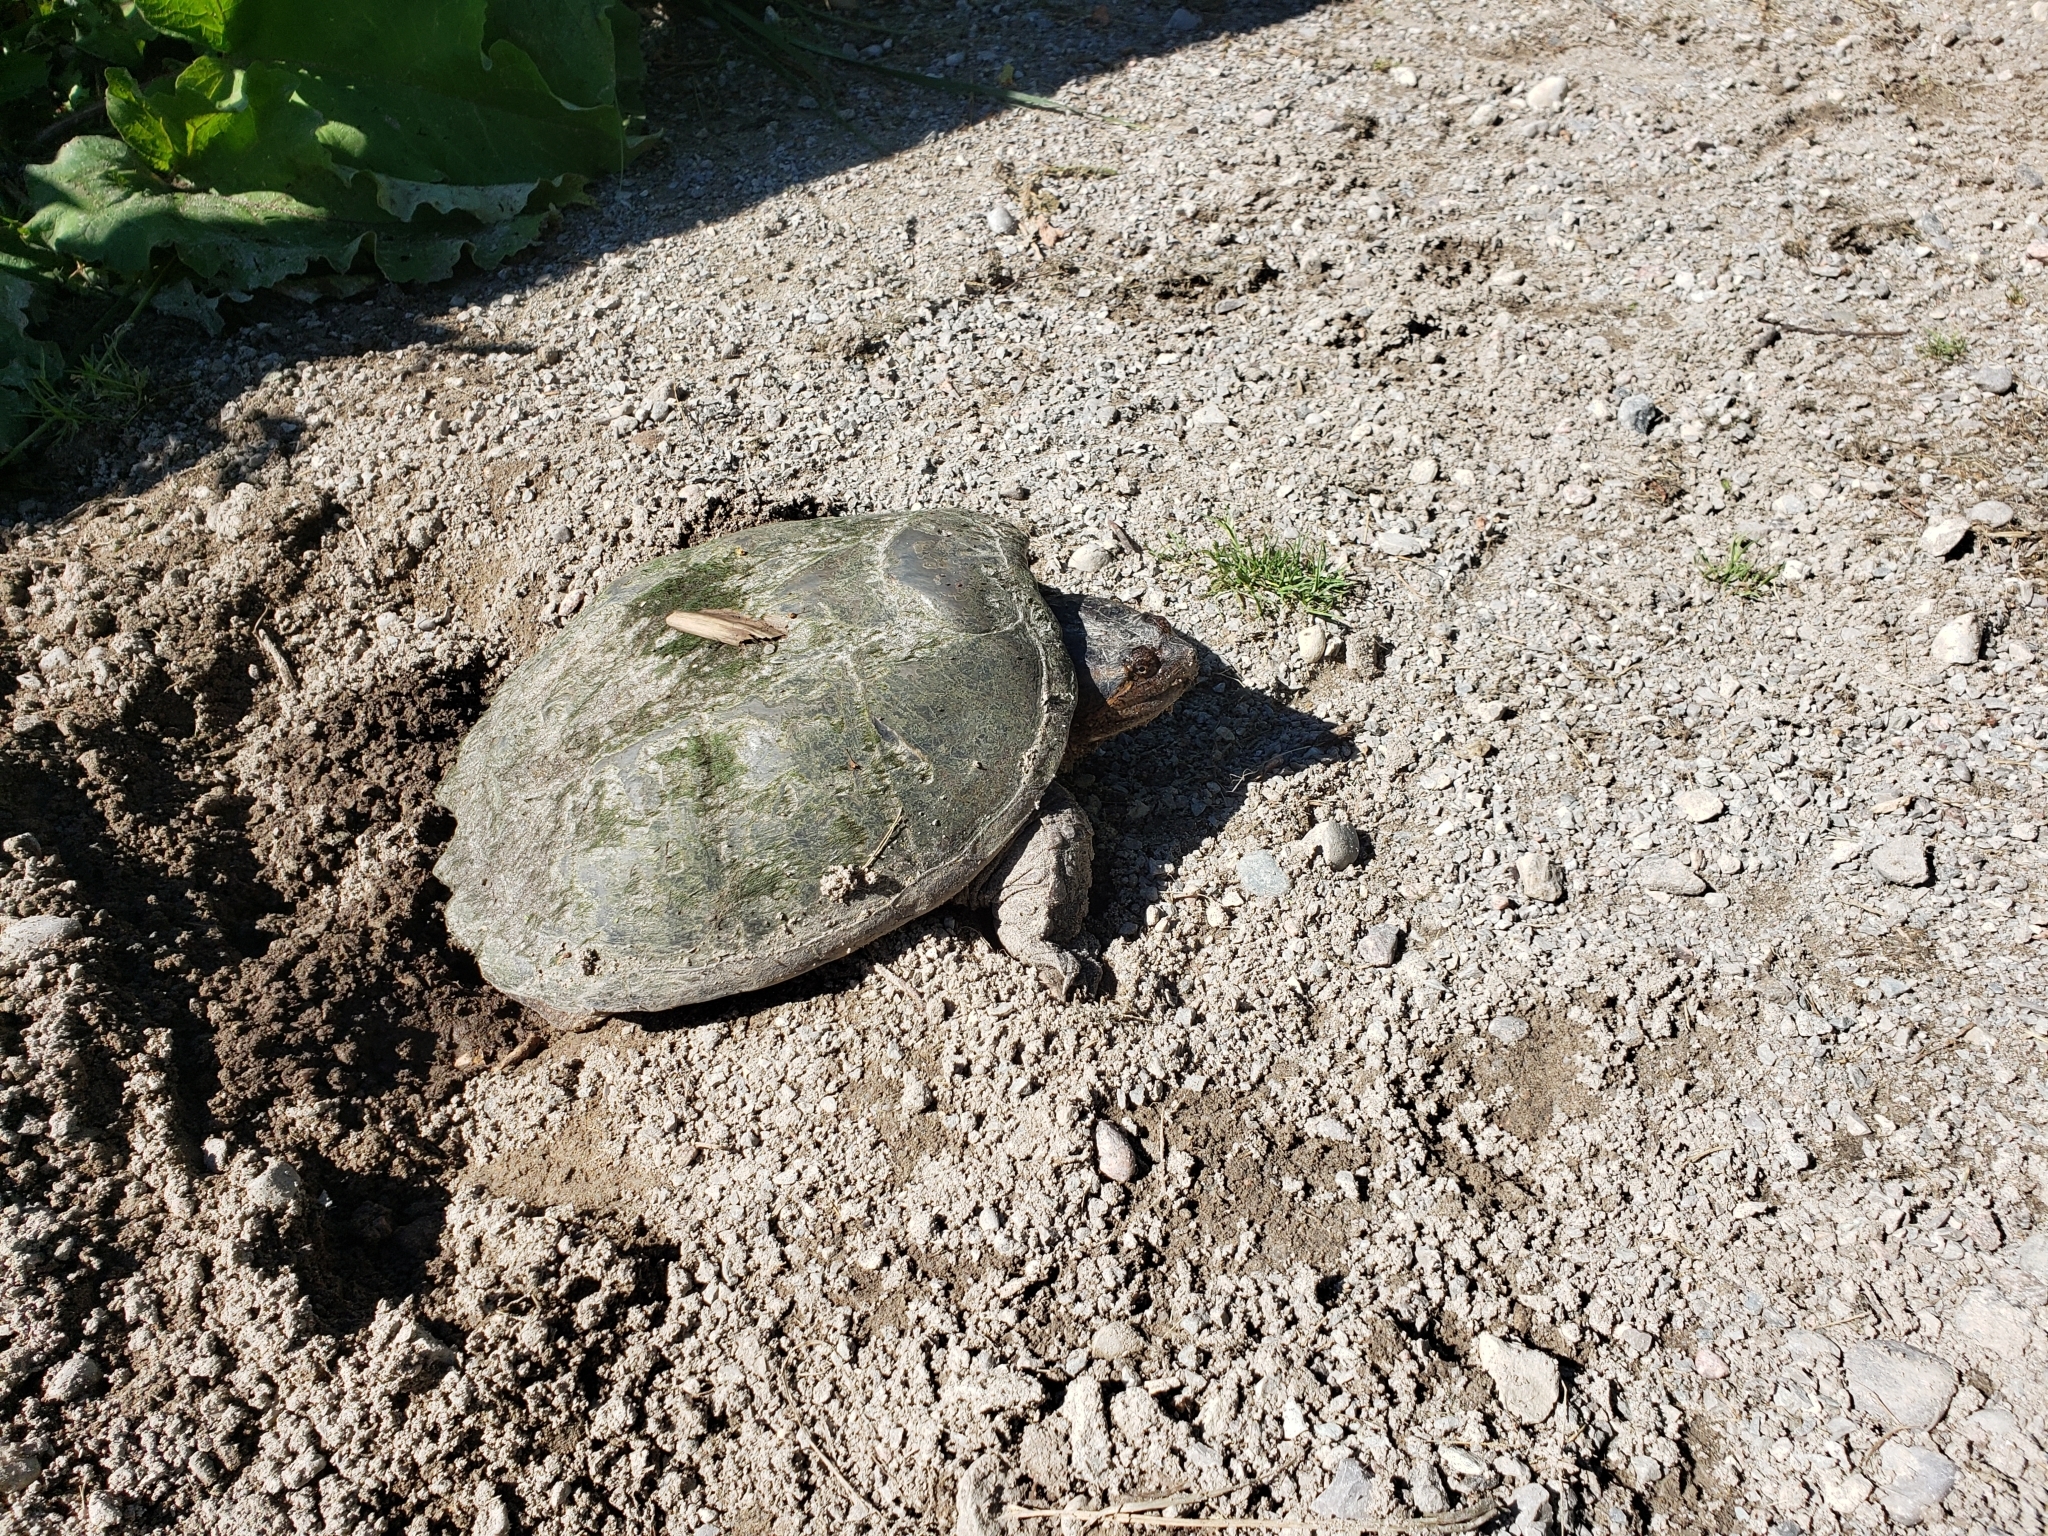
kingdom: Animalia
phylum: Chordata
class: Testudines
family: Chelydridae
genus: Chelydra
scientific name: Chelydra serpentina
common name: Common snapping turtle
